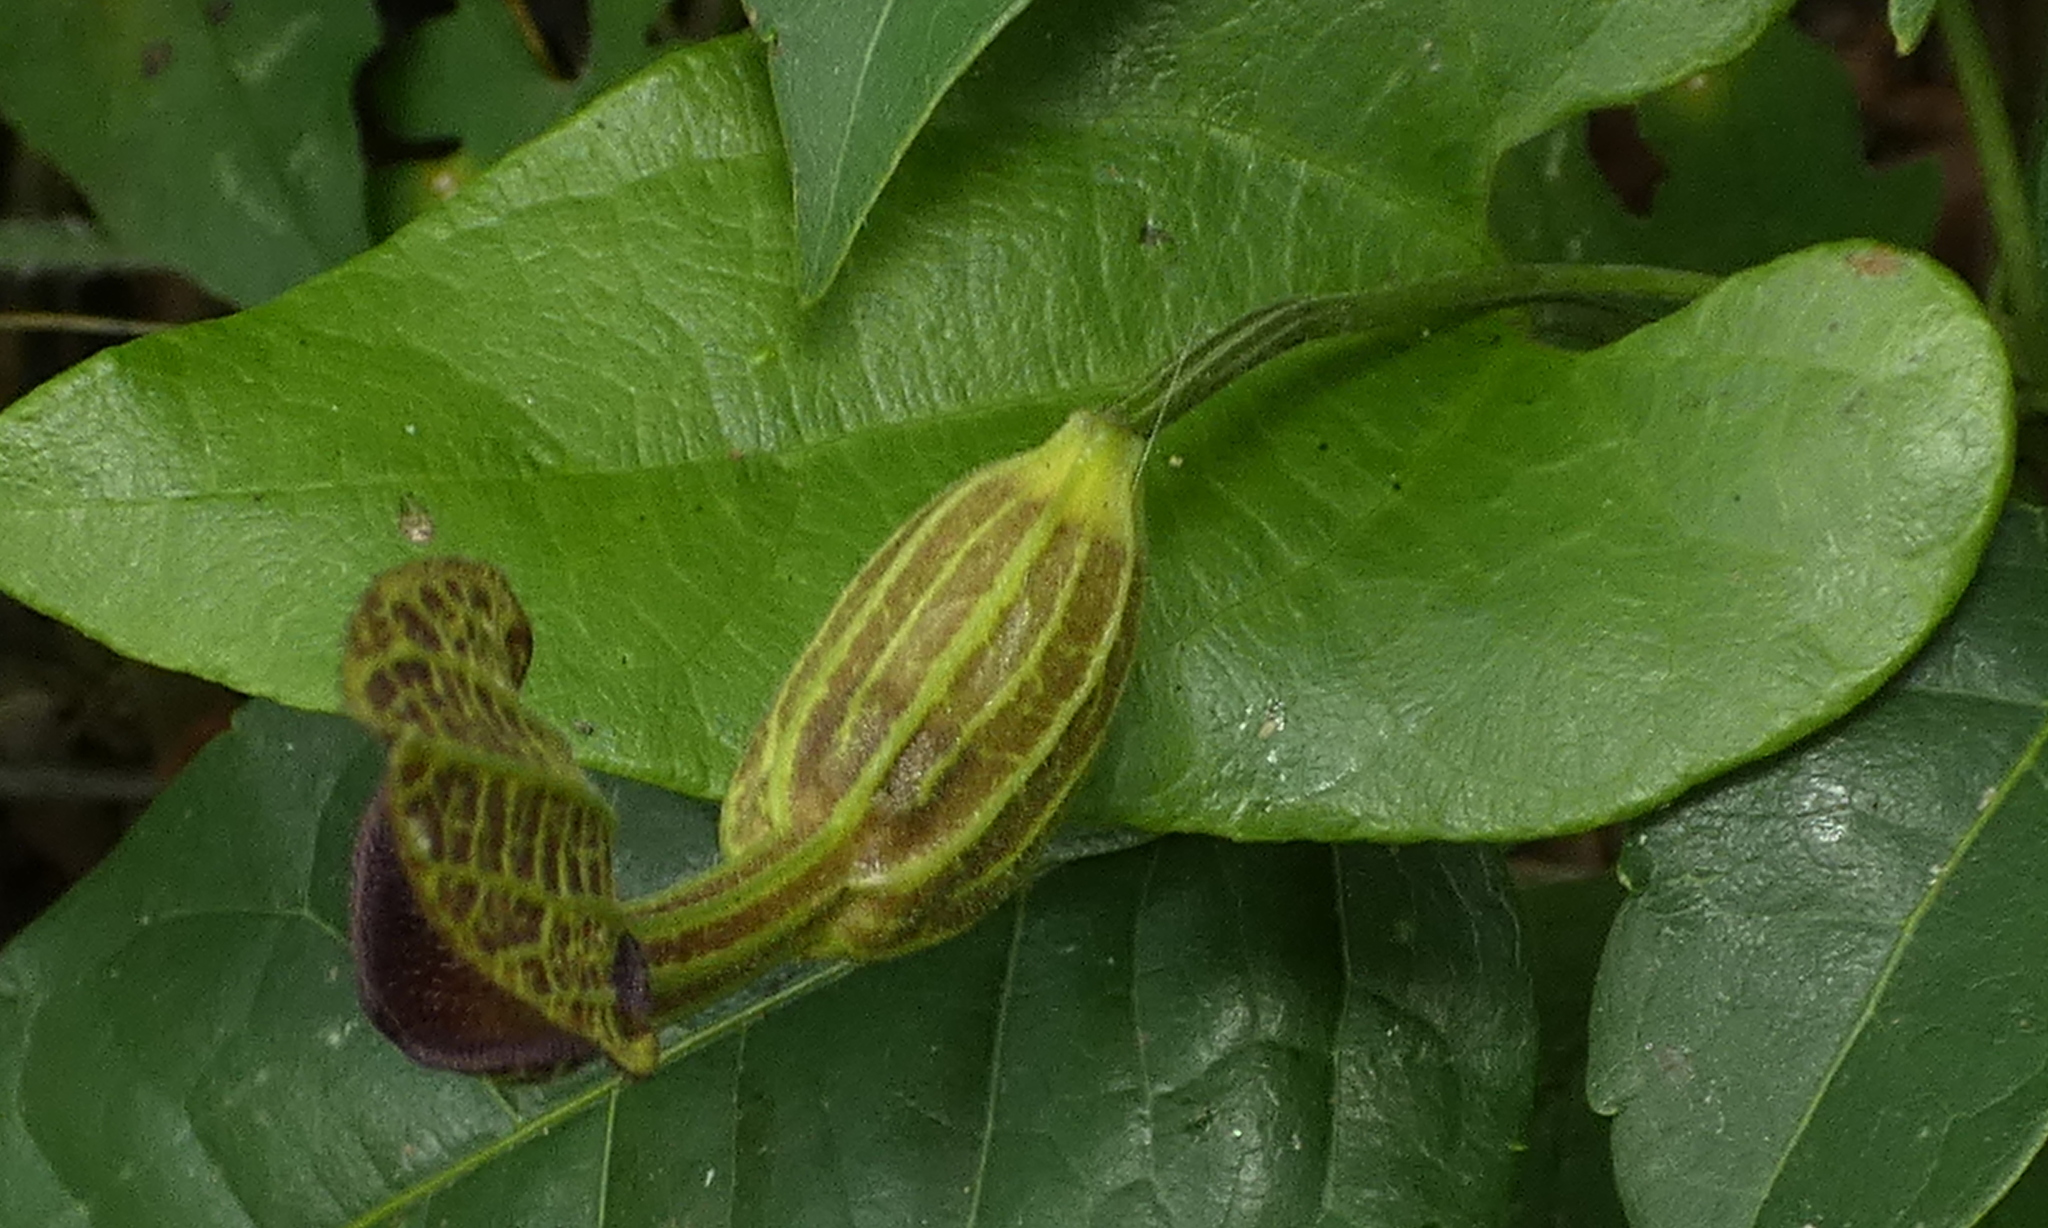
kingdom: Plantae
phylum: Tracheophyta
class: Magnoliopsida
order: Piperales
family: Aristolochiaceae
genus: Aristolochia
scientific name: Aristolochia papillaris
